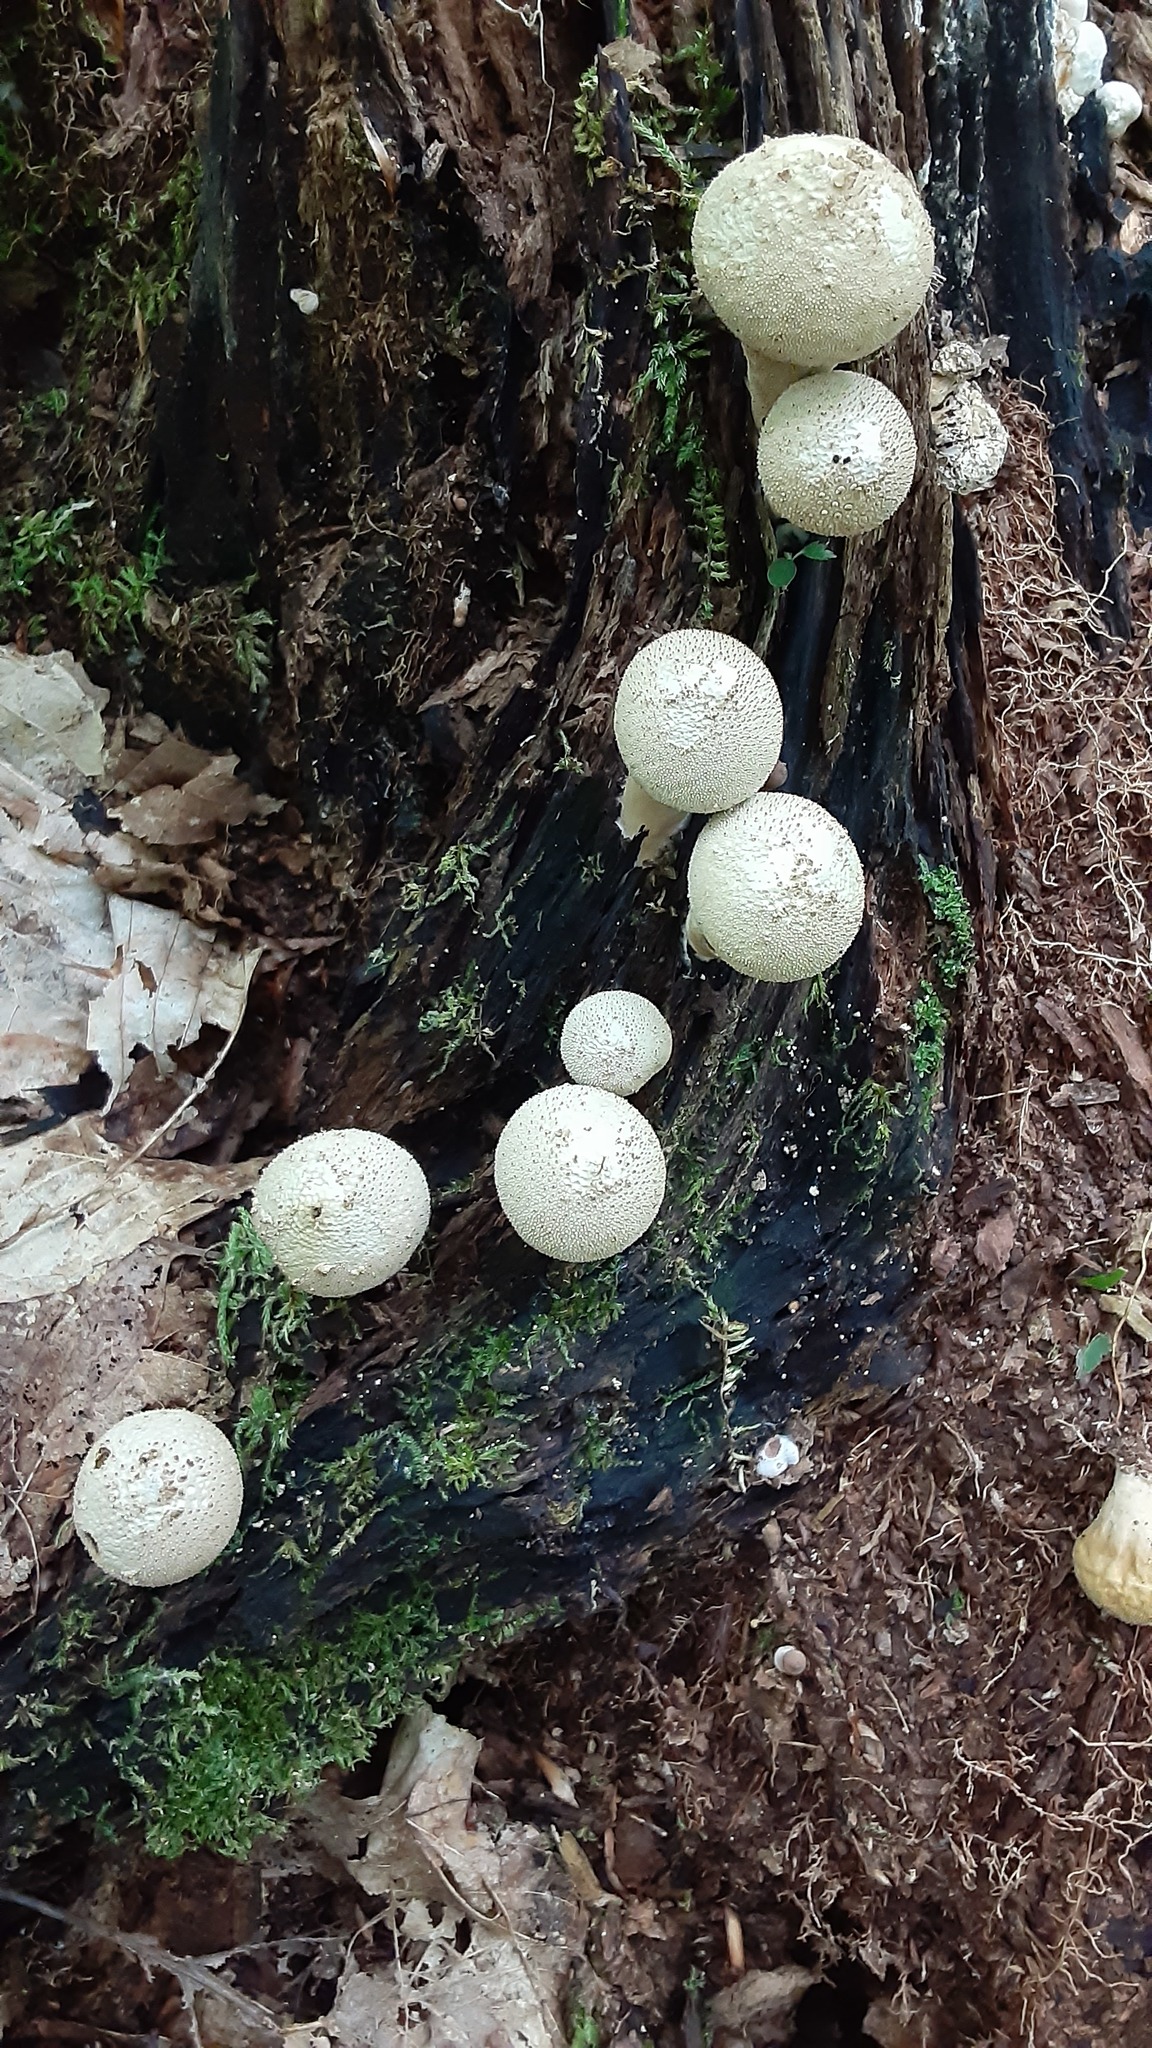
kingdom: Fungi
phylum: Basidiomycota
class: Agaricomycetes
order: Agaricales
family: Lycoperdaceae
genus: Lycoperdon
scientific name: Lycoperdon perlatum
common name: Common puffball
